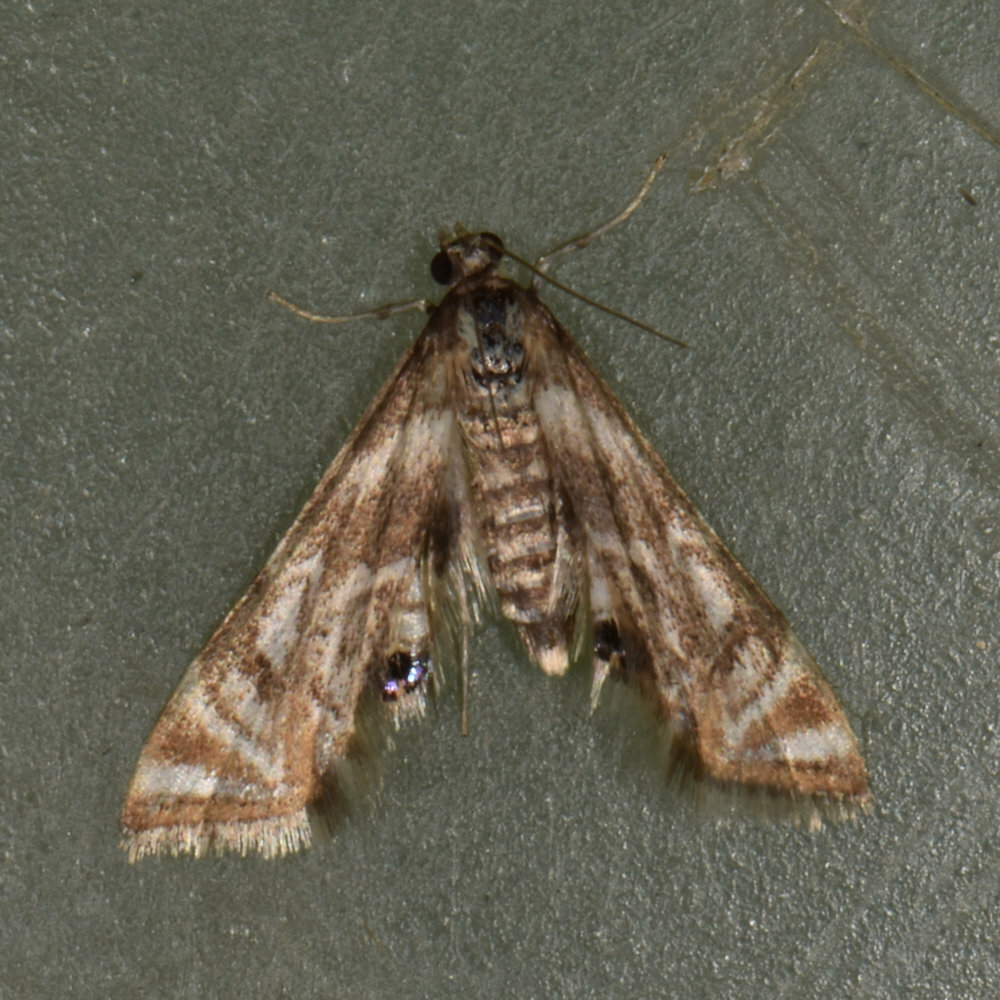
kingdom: Animalia
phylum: Arthropoda
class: Insecta
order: Lepidoptera
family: Crambidae
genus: Petrophila
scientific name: Petrophila canadensis
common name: Canadian petrophila
